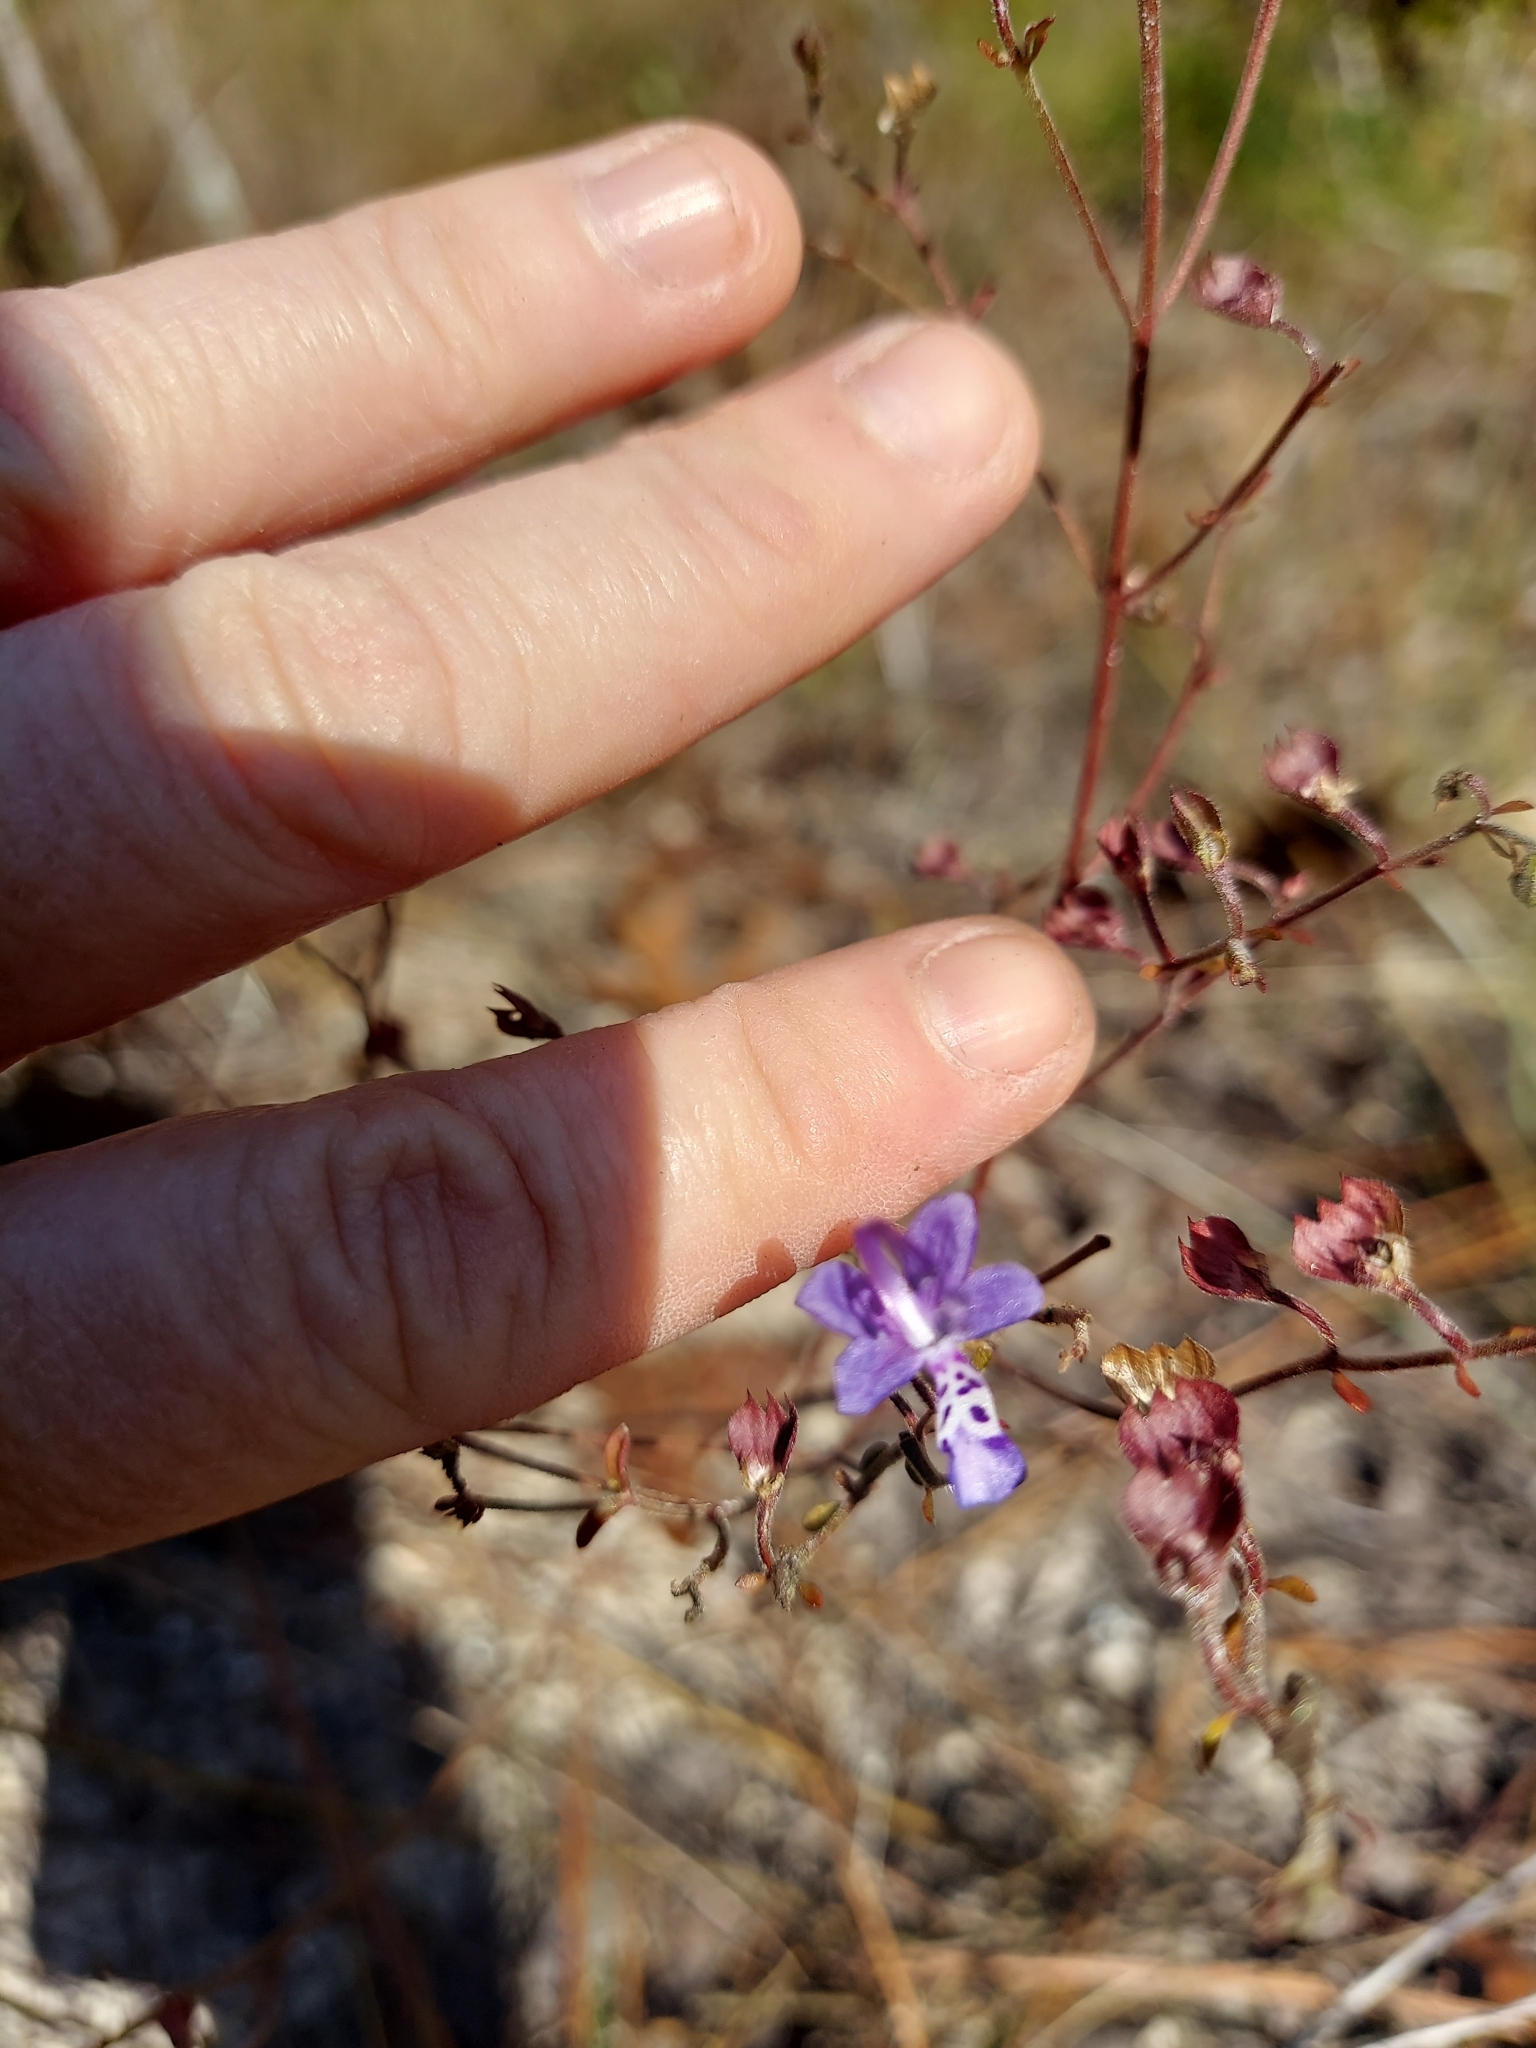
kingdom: Plantae
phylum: Tracheophyta
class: Magnoliopsida
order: Lamiales
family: Lamiaceae
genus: Trichostema
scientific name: Trichostema microphyllum
